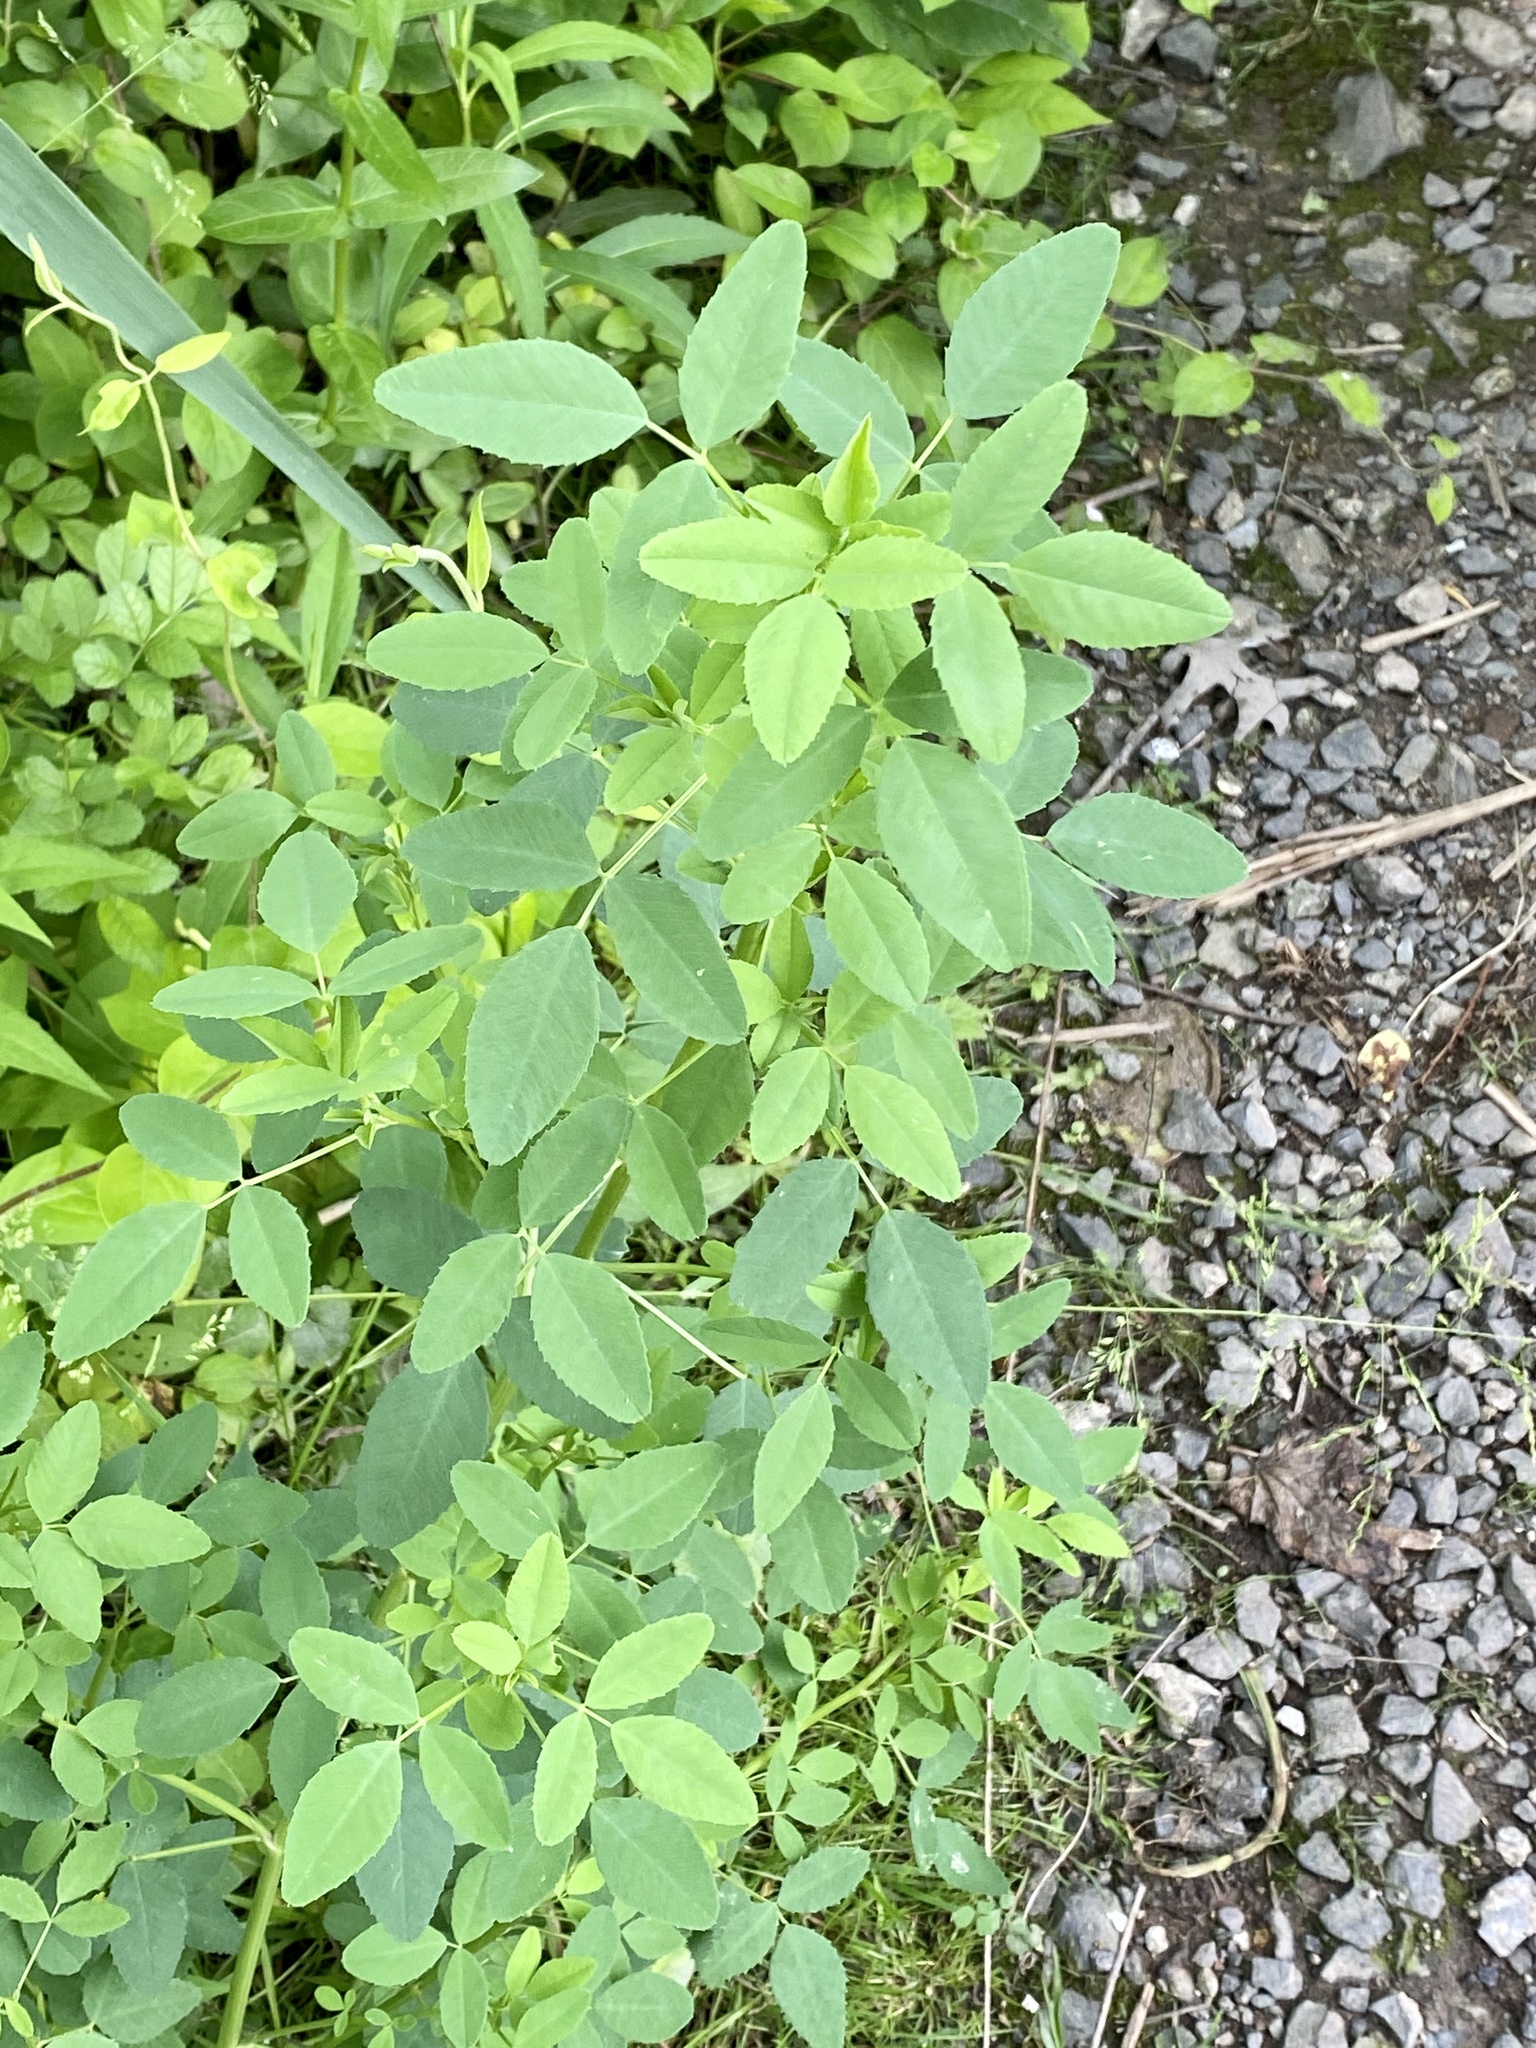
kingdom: Plantae
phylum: Tracheophyta
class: Magnoliopsida
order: Fabales
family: Fabaceae
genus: Melilotus
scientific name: Melilotus
